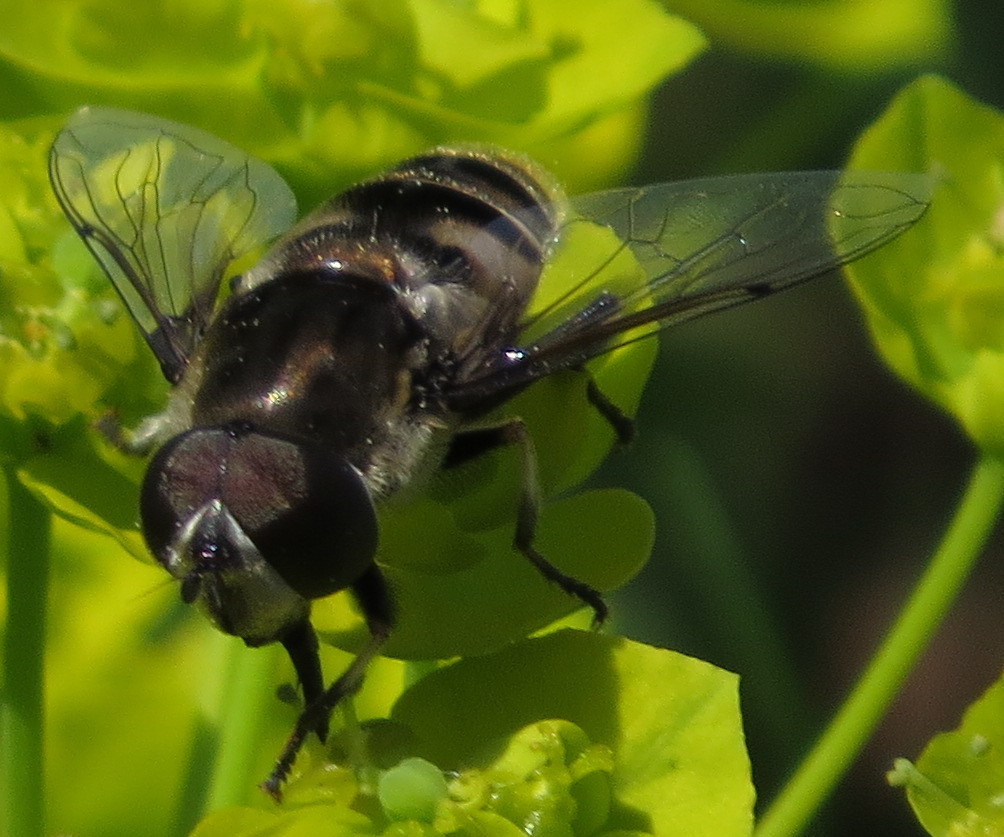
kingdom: Animalia
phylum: Arthropoda
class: Insecta
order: Diptera
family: Syrphidae
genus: Eristalis
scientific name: Eristalis dimidiata
